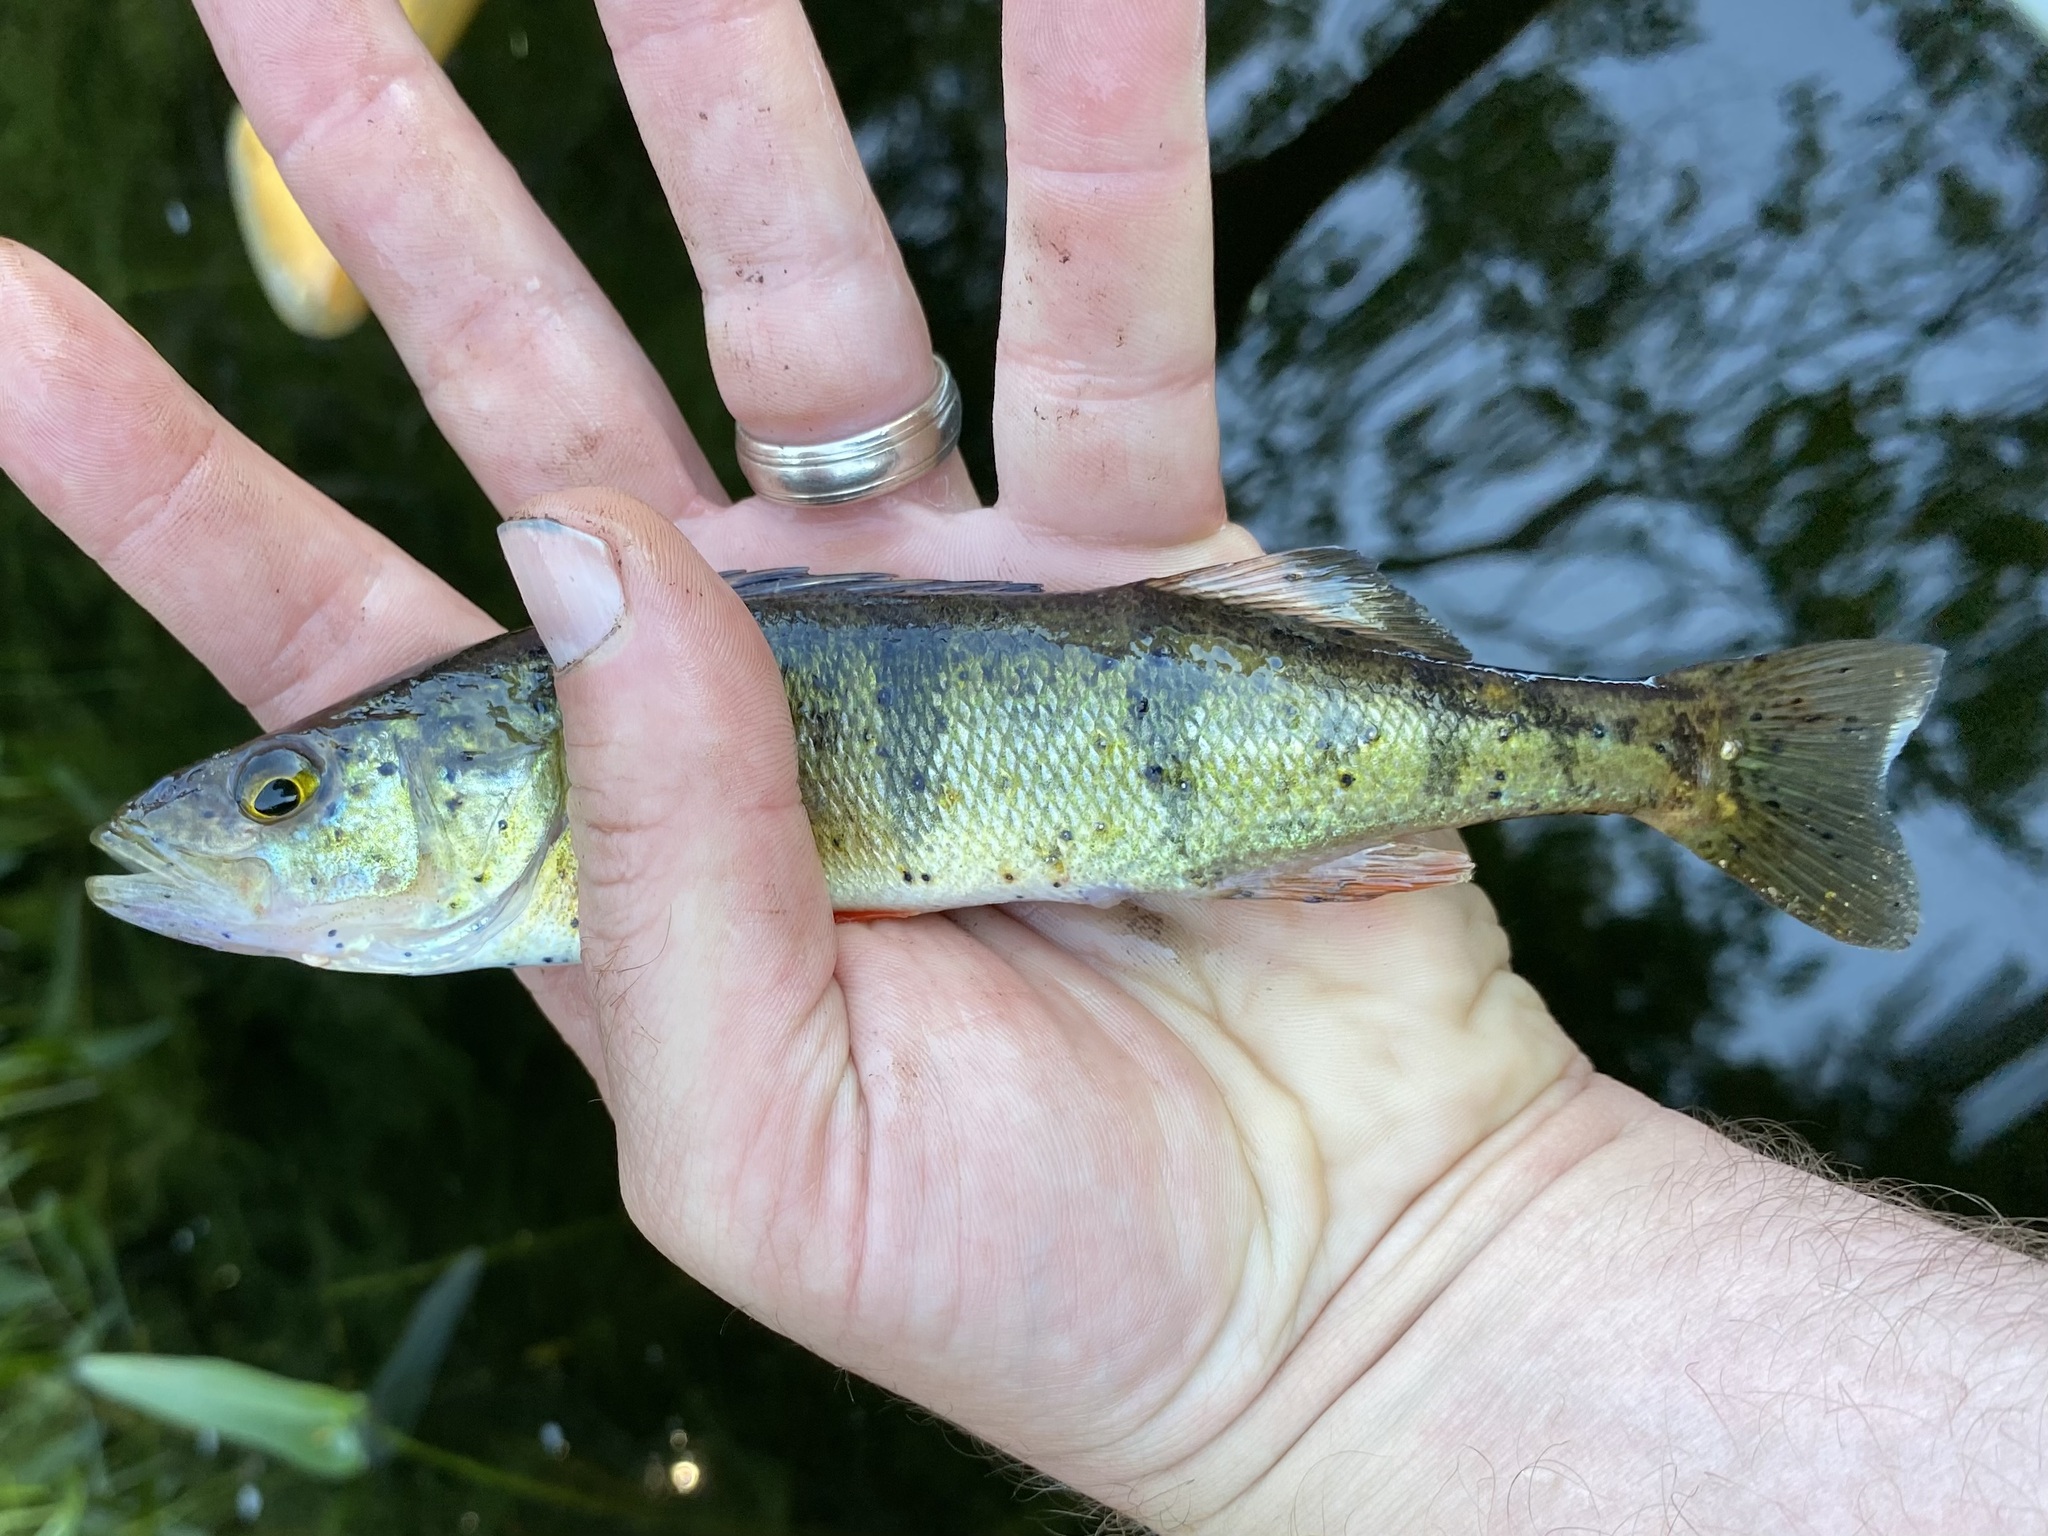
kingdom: Animalia
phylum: Chordata
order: Perciformes
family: Percidae
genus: Perca
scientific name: Perca flavescens
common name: Yellow perch
